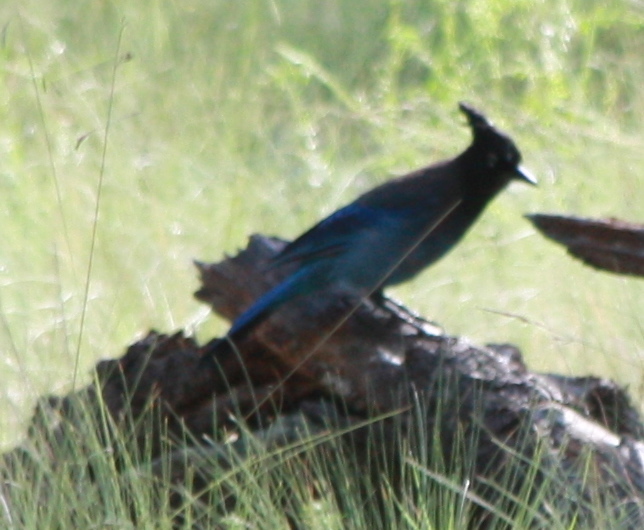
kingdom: Animalia
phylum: Chordata
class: Aves
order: Passeriformes
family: Corvidae
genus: Cyanocitta
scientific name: Cyanocitta stelleri
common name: Steller's jay
